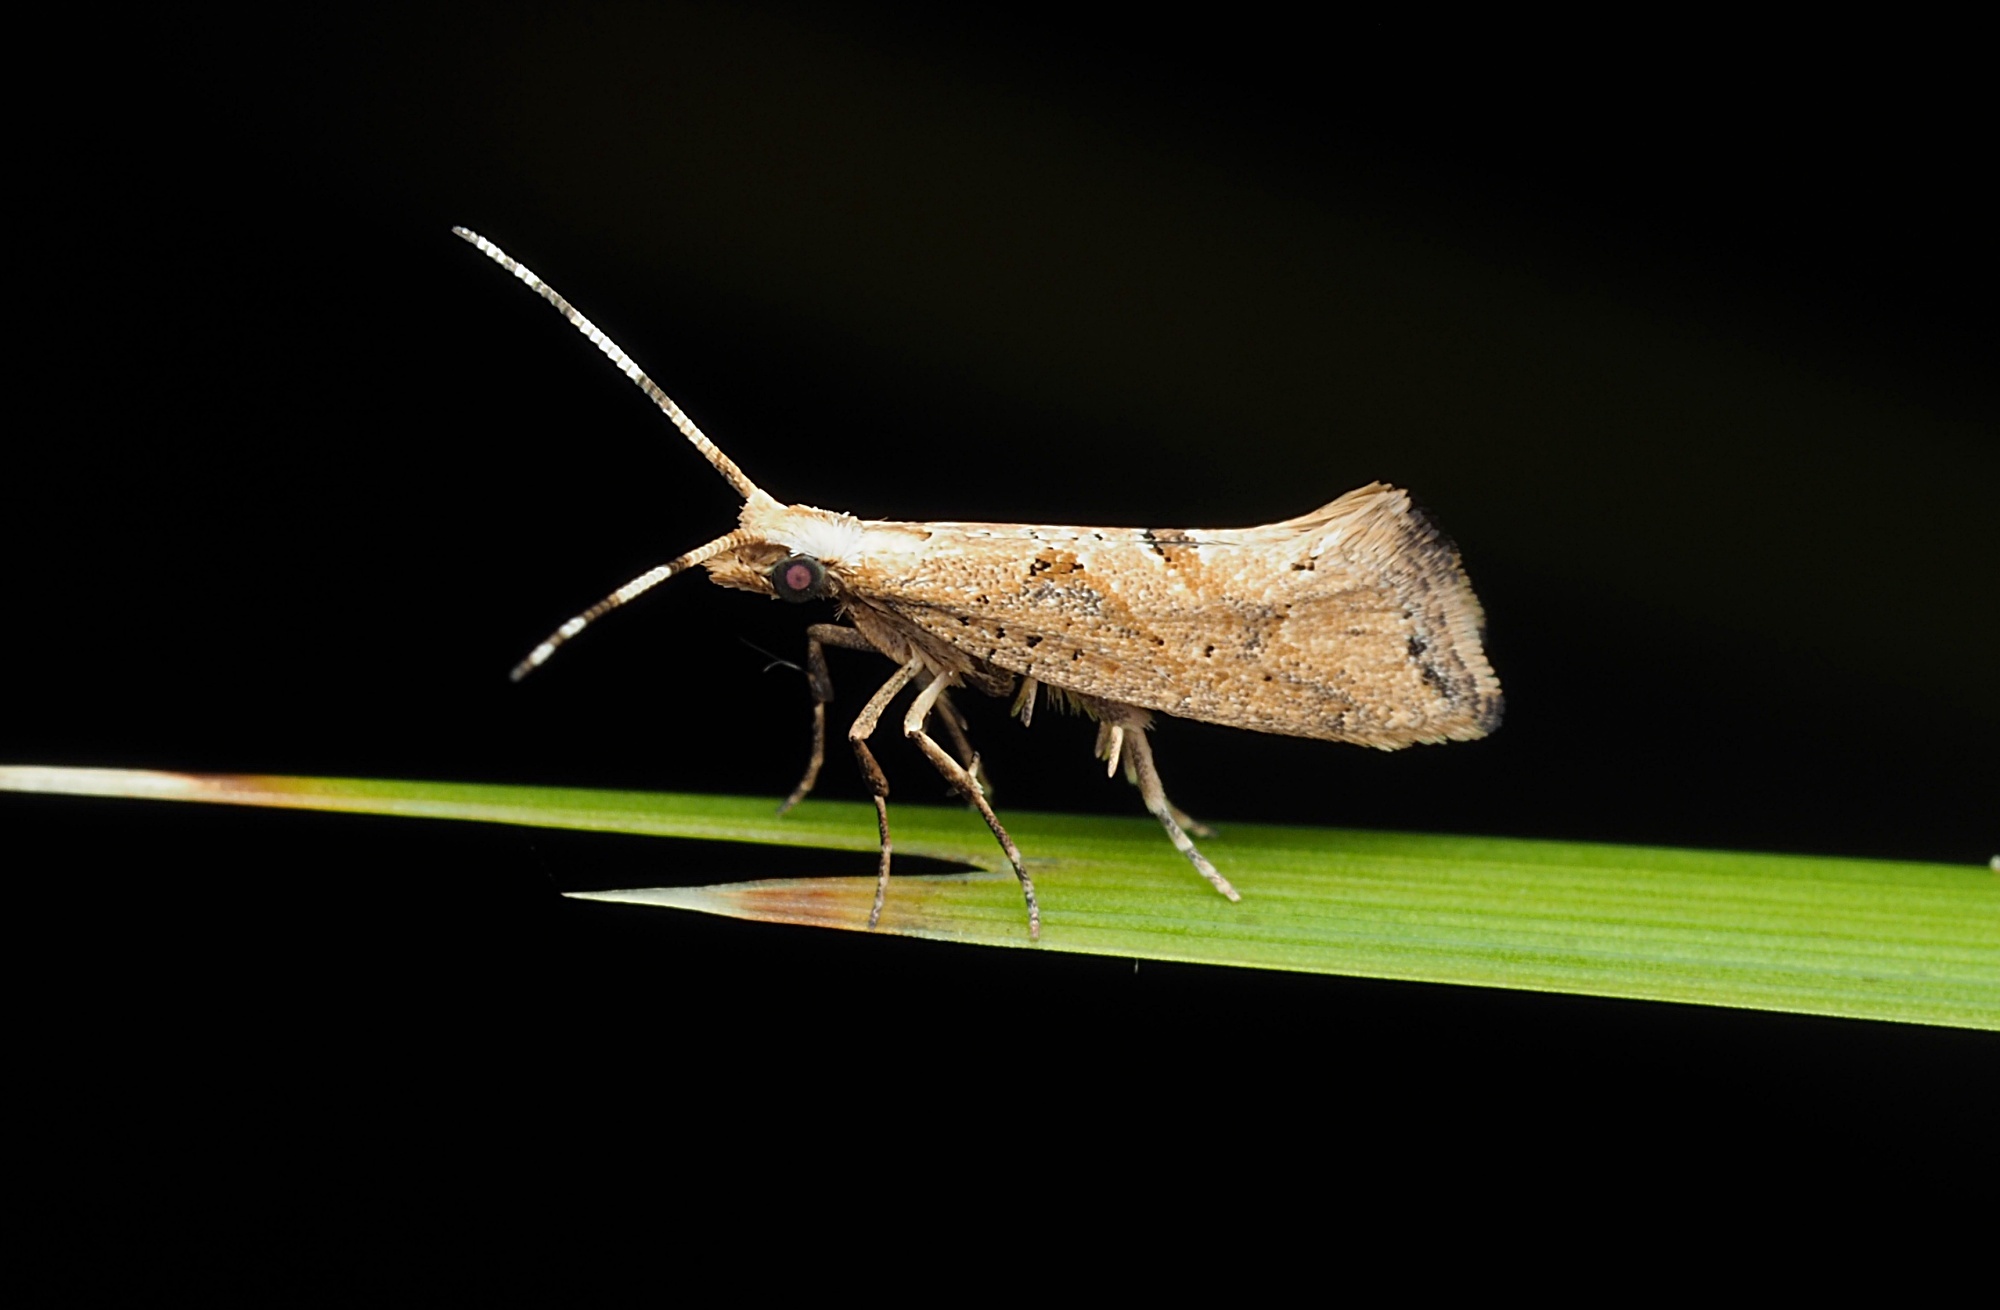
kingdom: Animalia
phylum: Arthropoda
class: Insecta
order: Lepidoptera
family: Plutellidae
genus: Leuroperna
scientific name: Leuroperna sera
